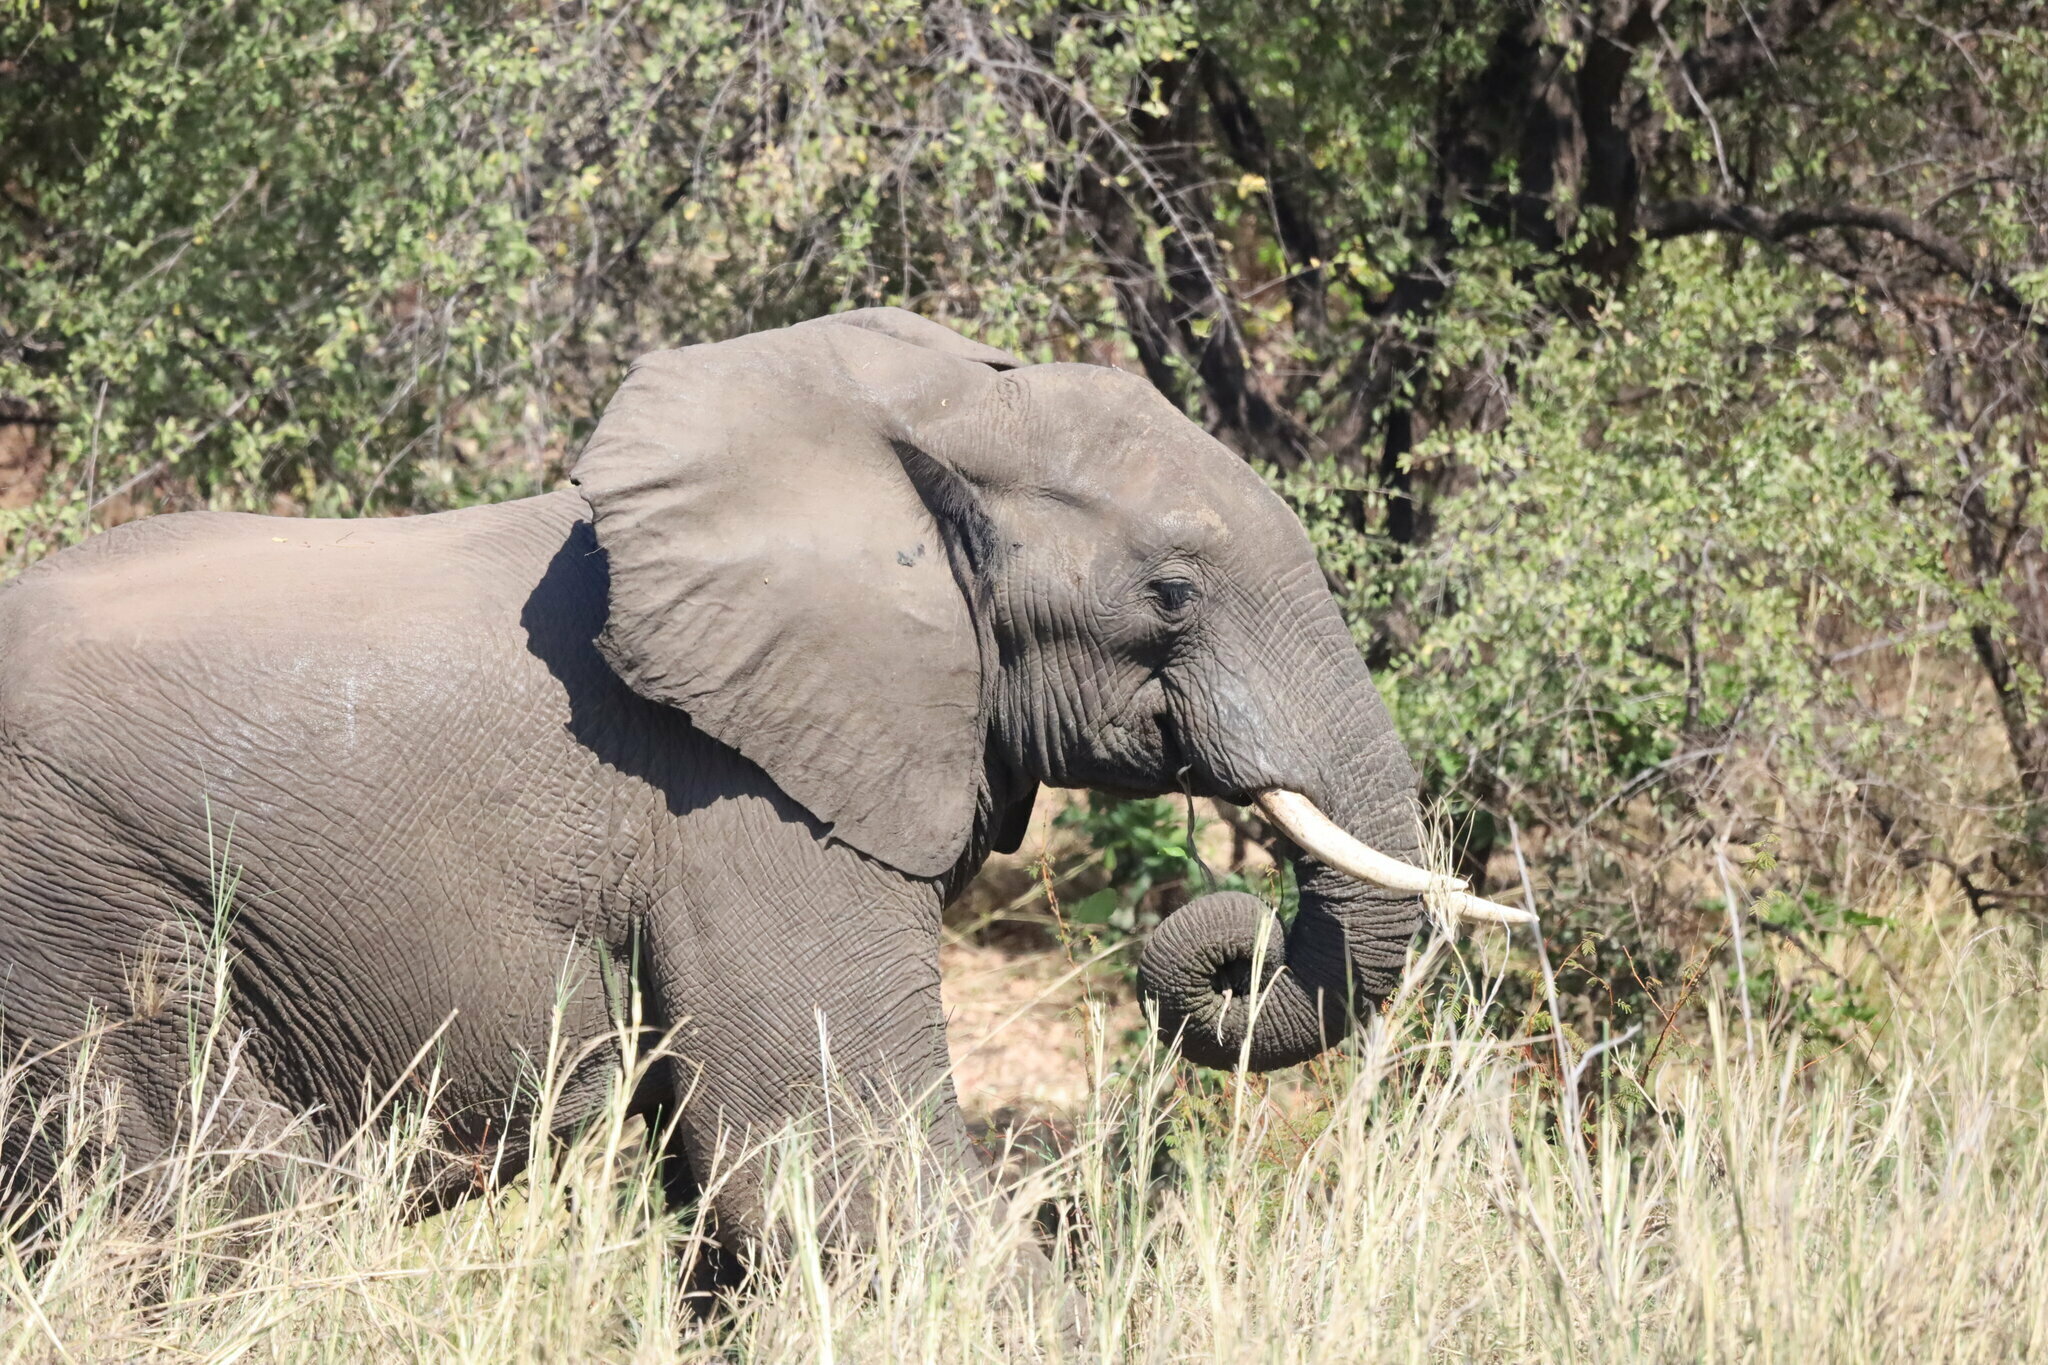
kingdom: Animalia
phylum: Chordata
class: Mammalia
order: Proboscidea
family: Elephantidae
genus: Loxodonta
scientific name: Loxodonta africana
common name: African elephant
